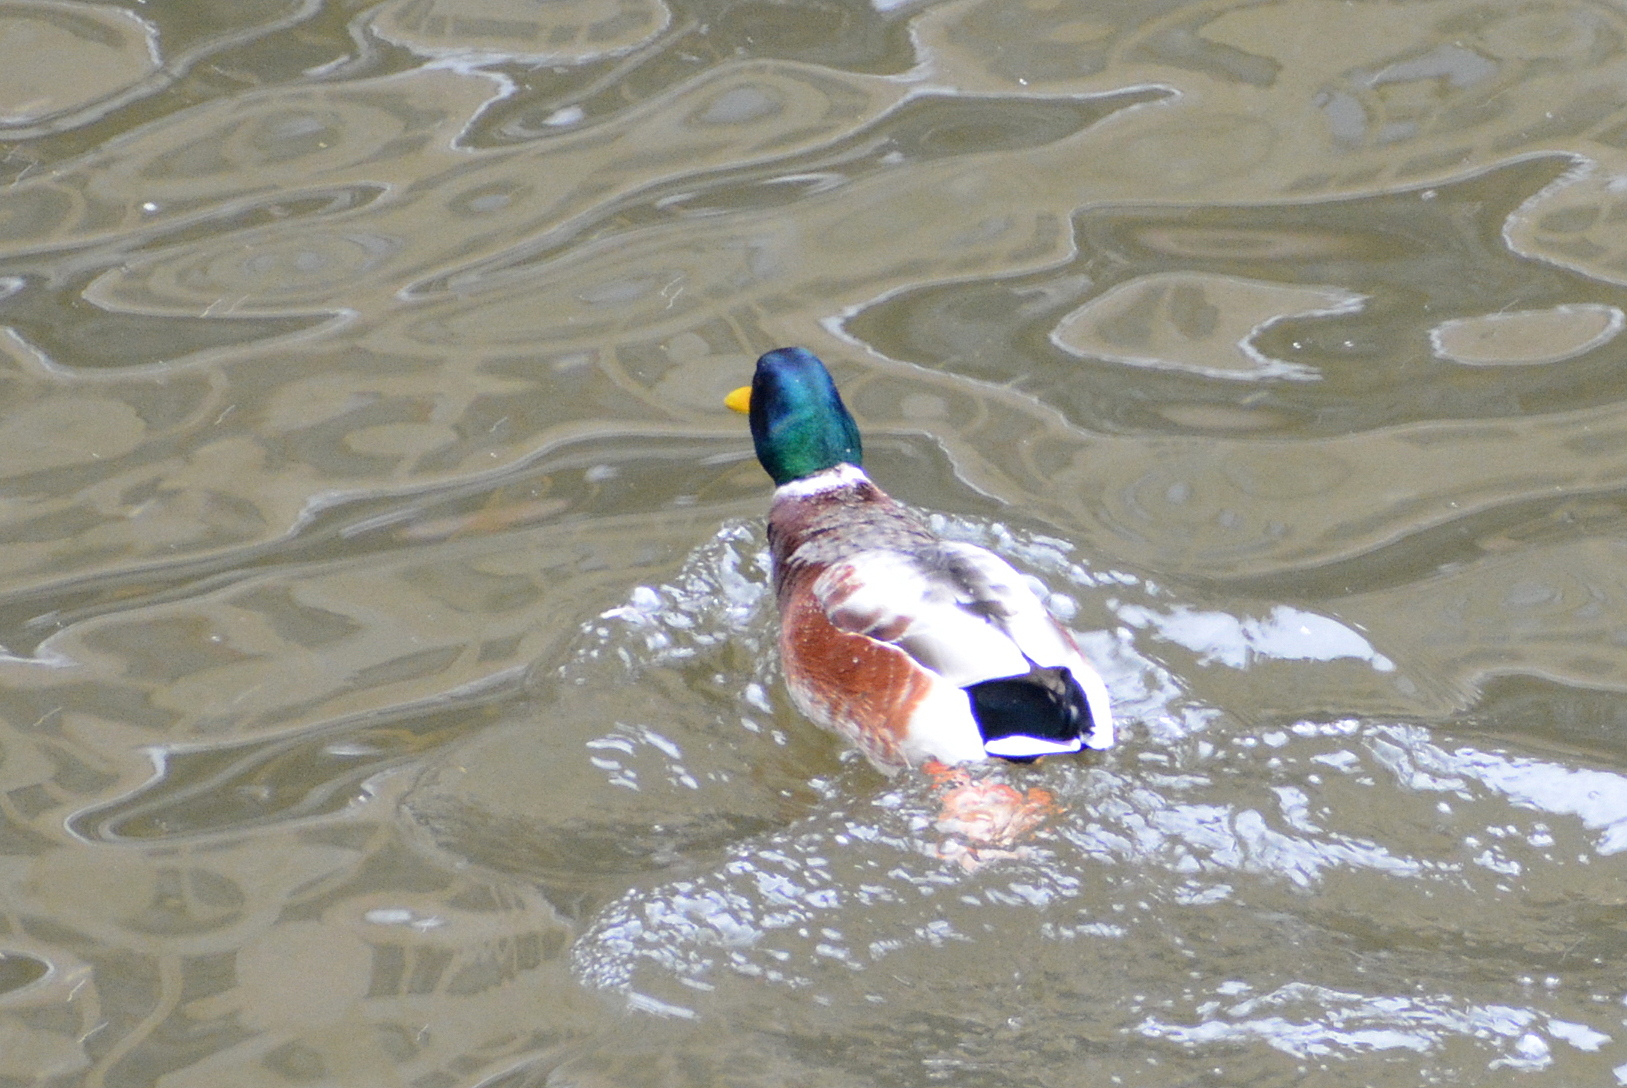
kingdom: Animalia
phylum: Chordata
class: Aves
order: Anseriformes
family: Anatidae
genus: Anas
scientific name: Anas platyrhynchos
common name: Mallard
